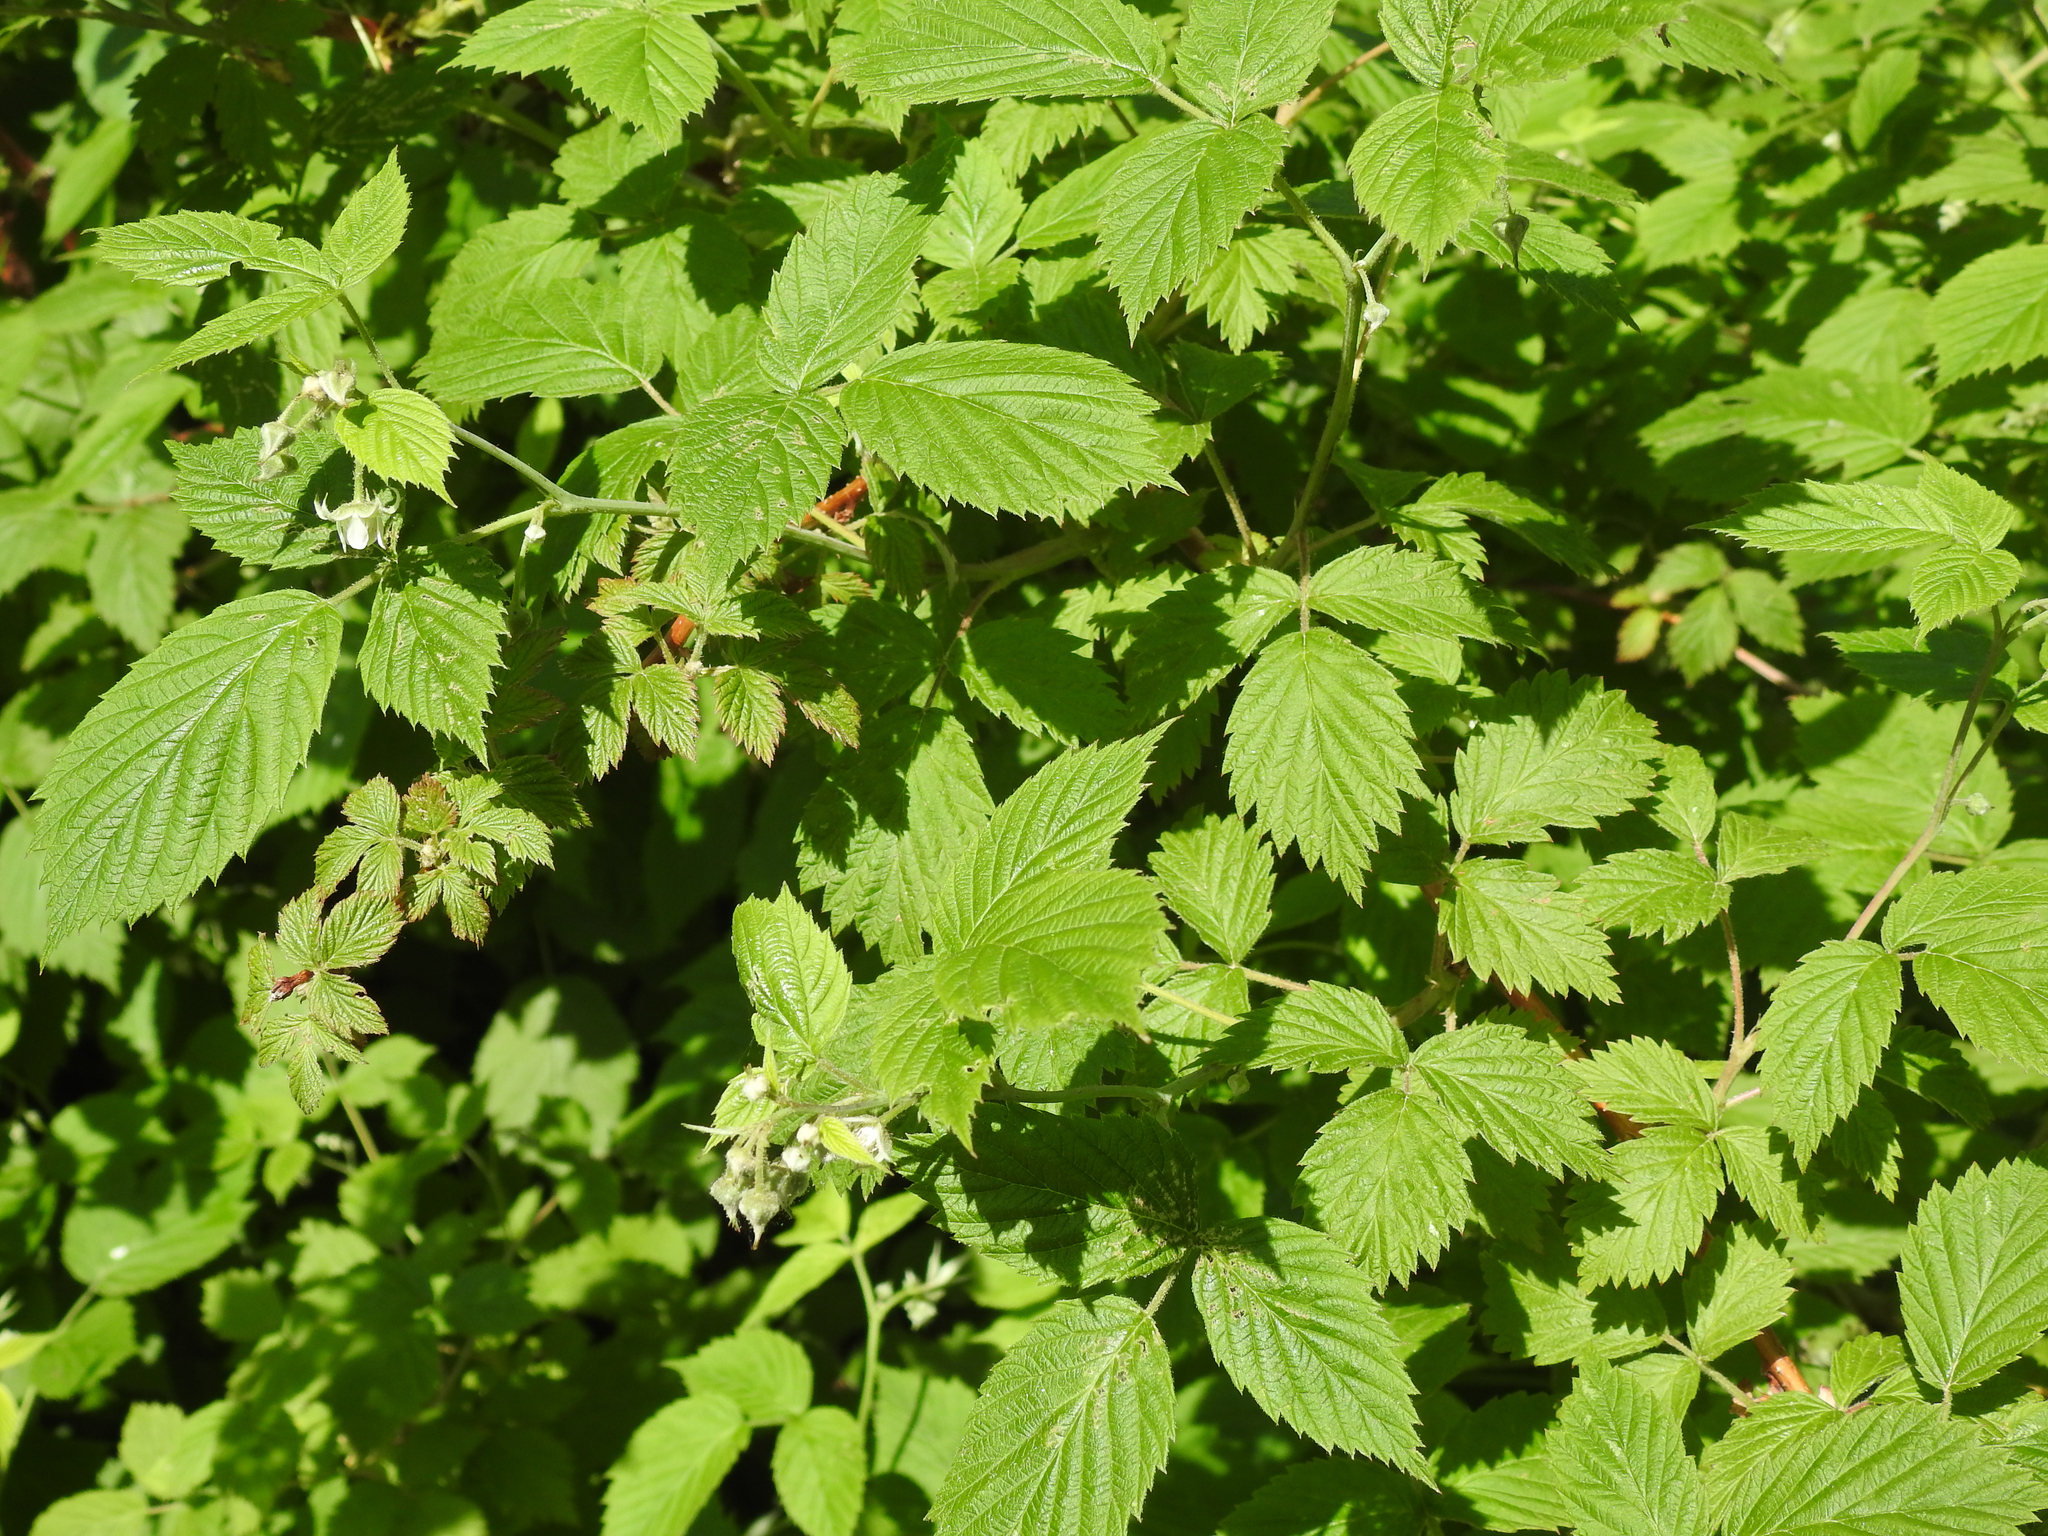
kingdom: Plantae
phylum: Tracheophyta
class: Magnoliopsida
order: Rosales
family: Rosaceae
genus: Rubus
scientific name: Rubus idaeus
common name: Raspberry
